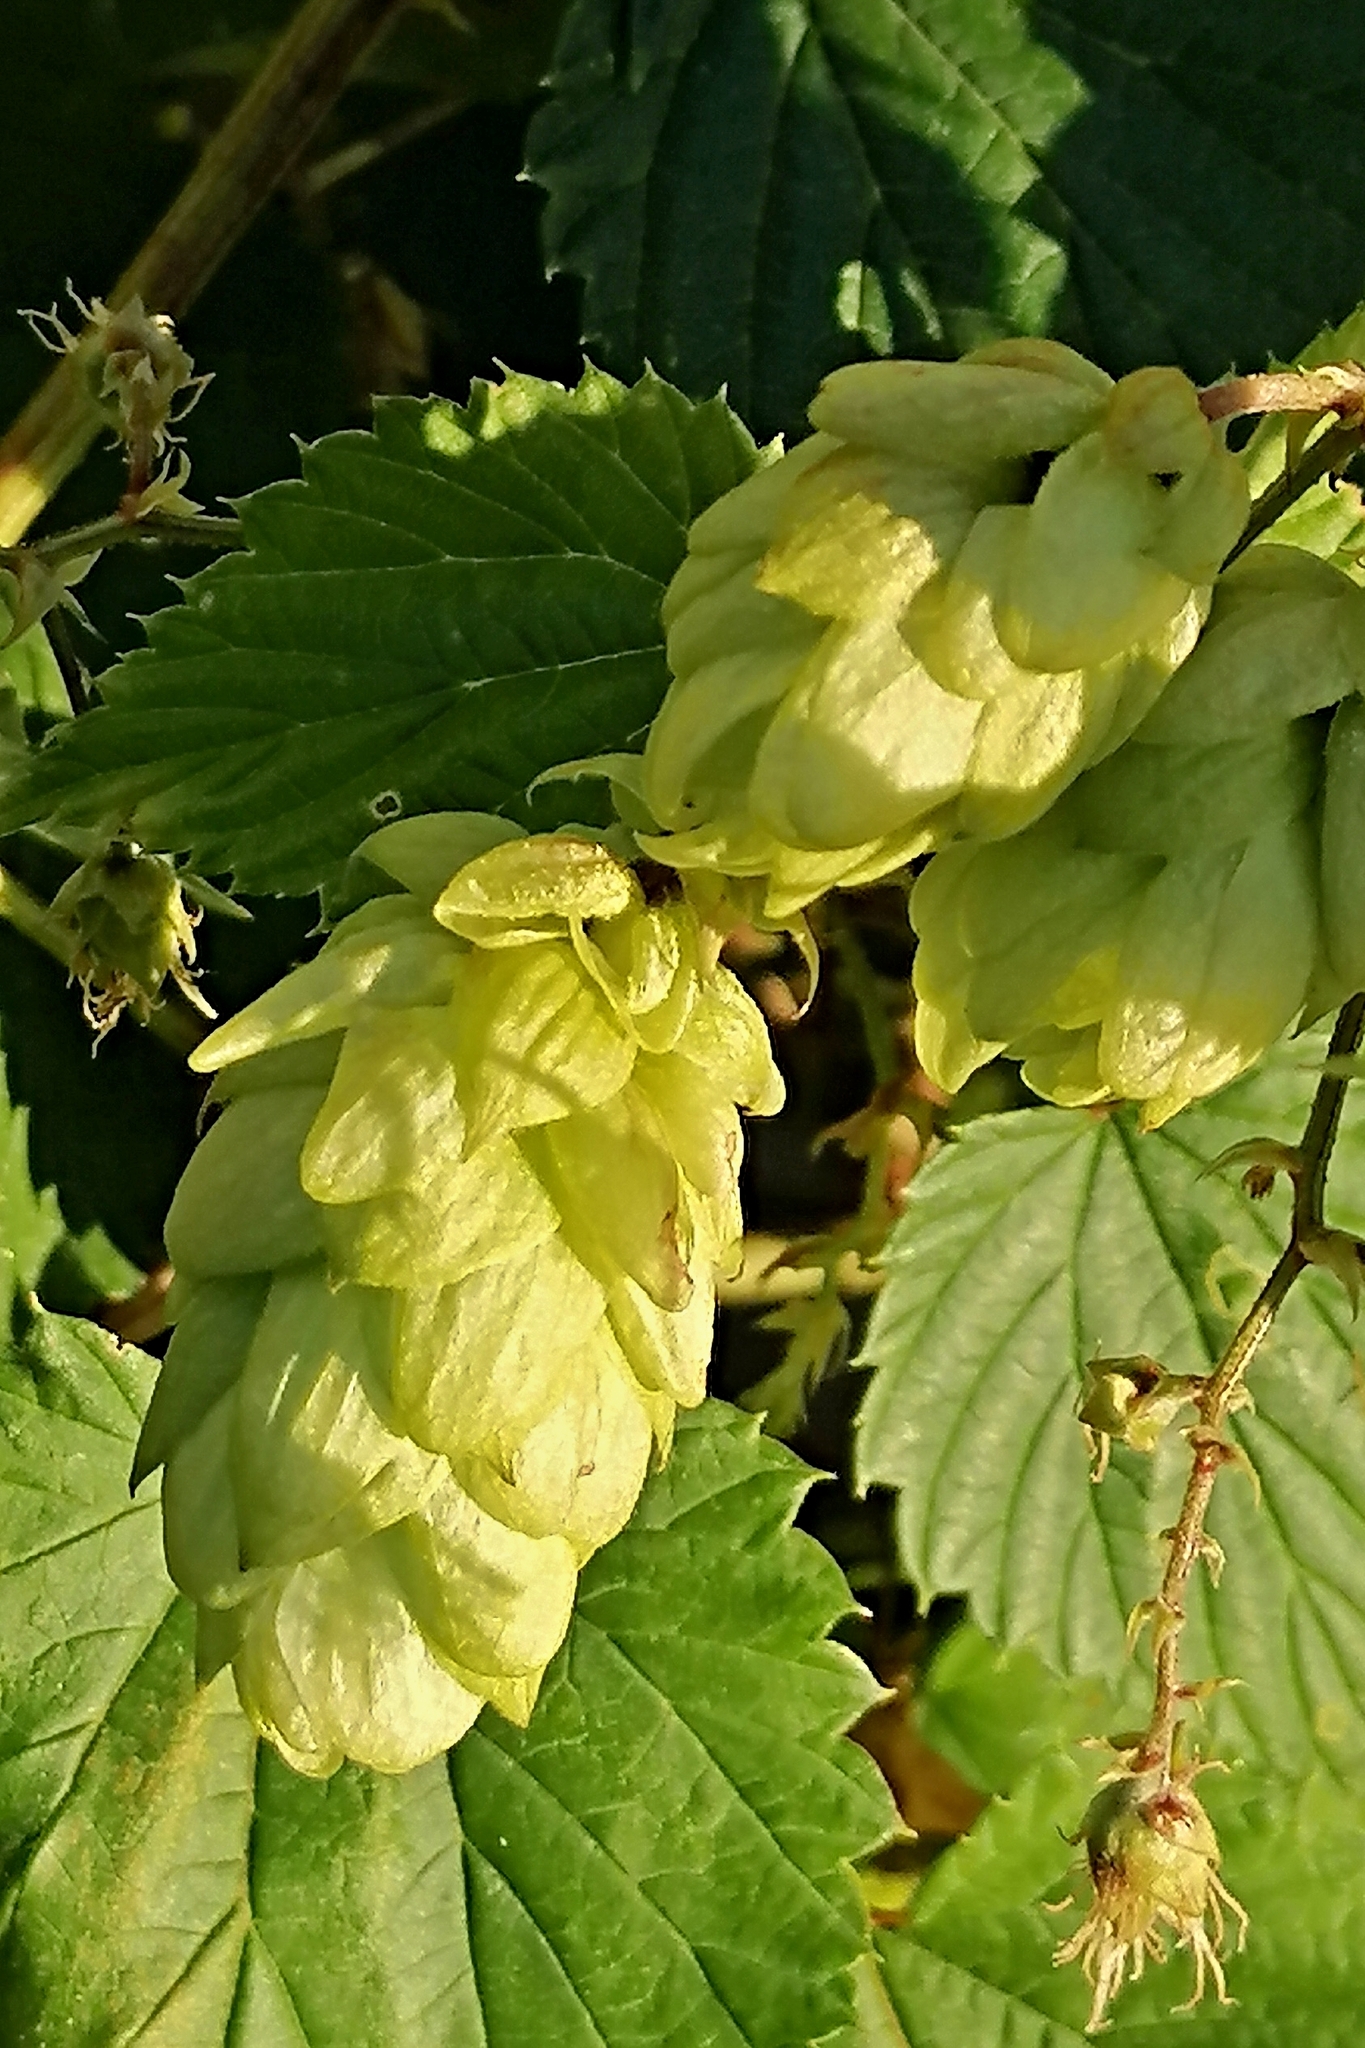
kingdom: Plantae
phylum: Tracheophyta
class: Magnoliopsida
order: Rosales
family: Cannabaceae
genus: Humulus
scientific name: Humulus lupulus
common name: Hop
